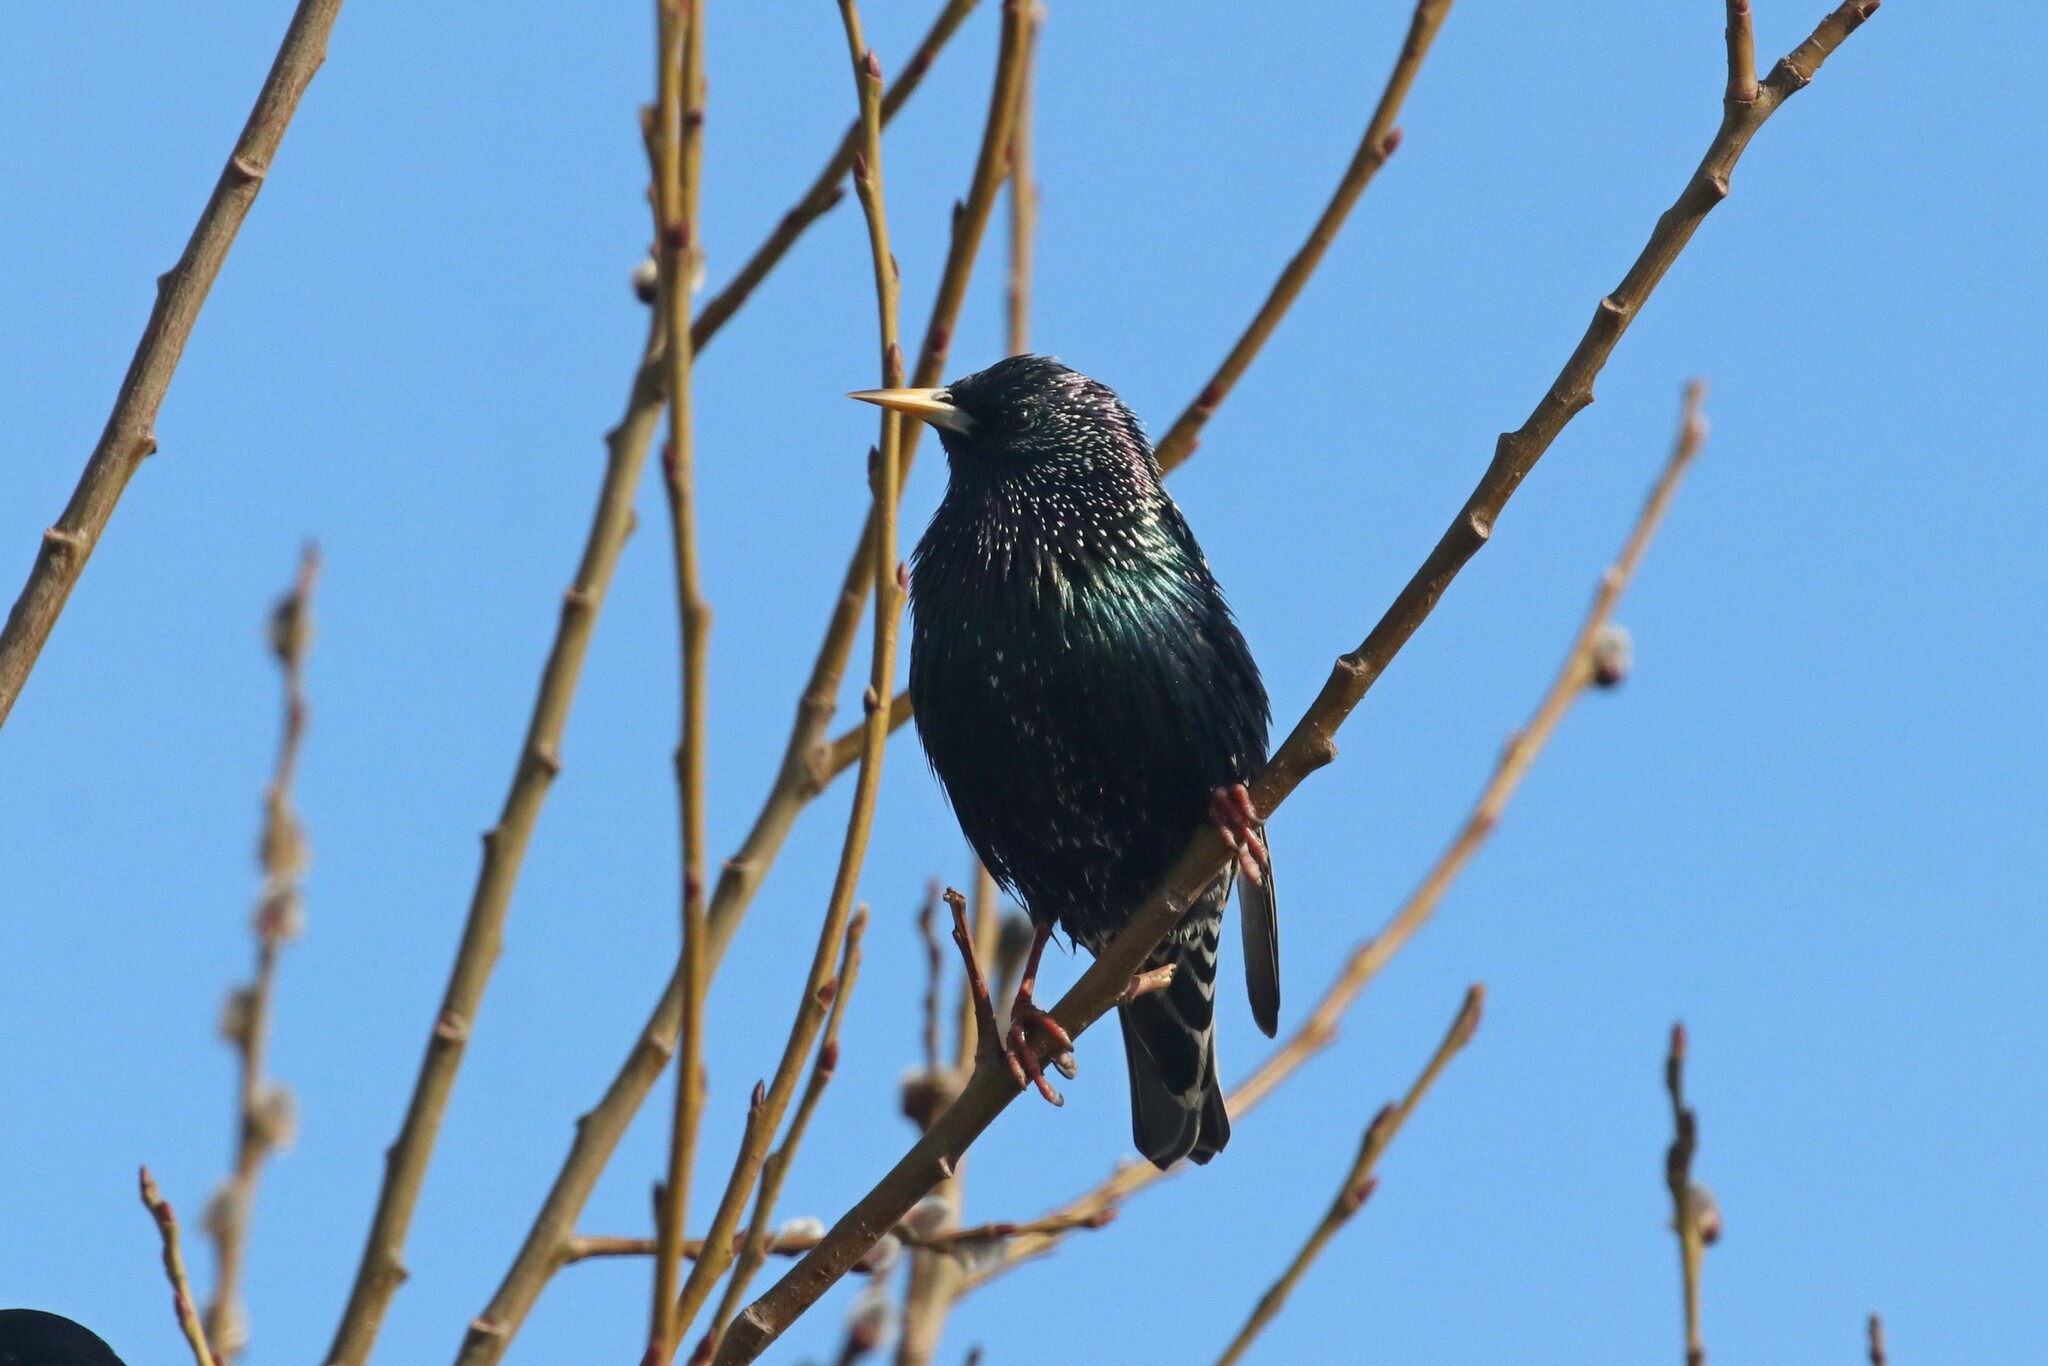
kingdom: Animalia
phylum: Chordata
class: Aves
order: Passeriformes
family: Sturnidae
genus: Sturnus
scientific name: Sturnus vulgaris
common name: Common starling
